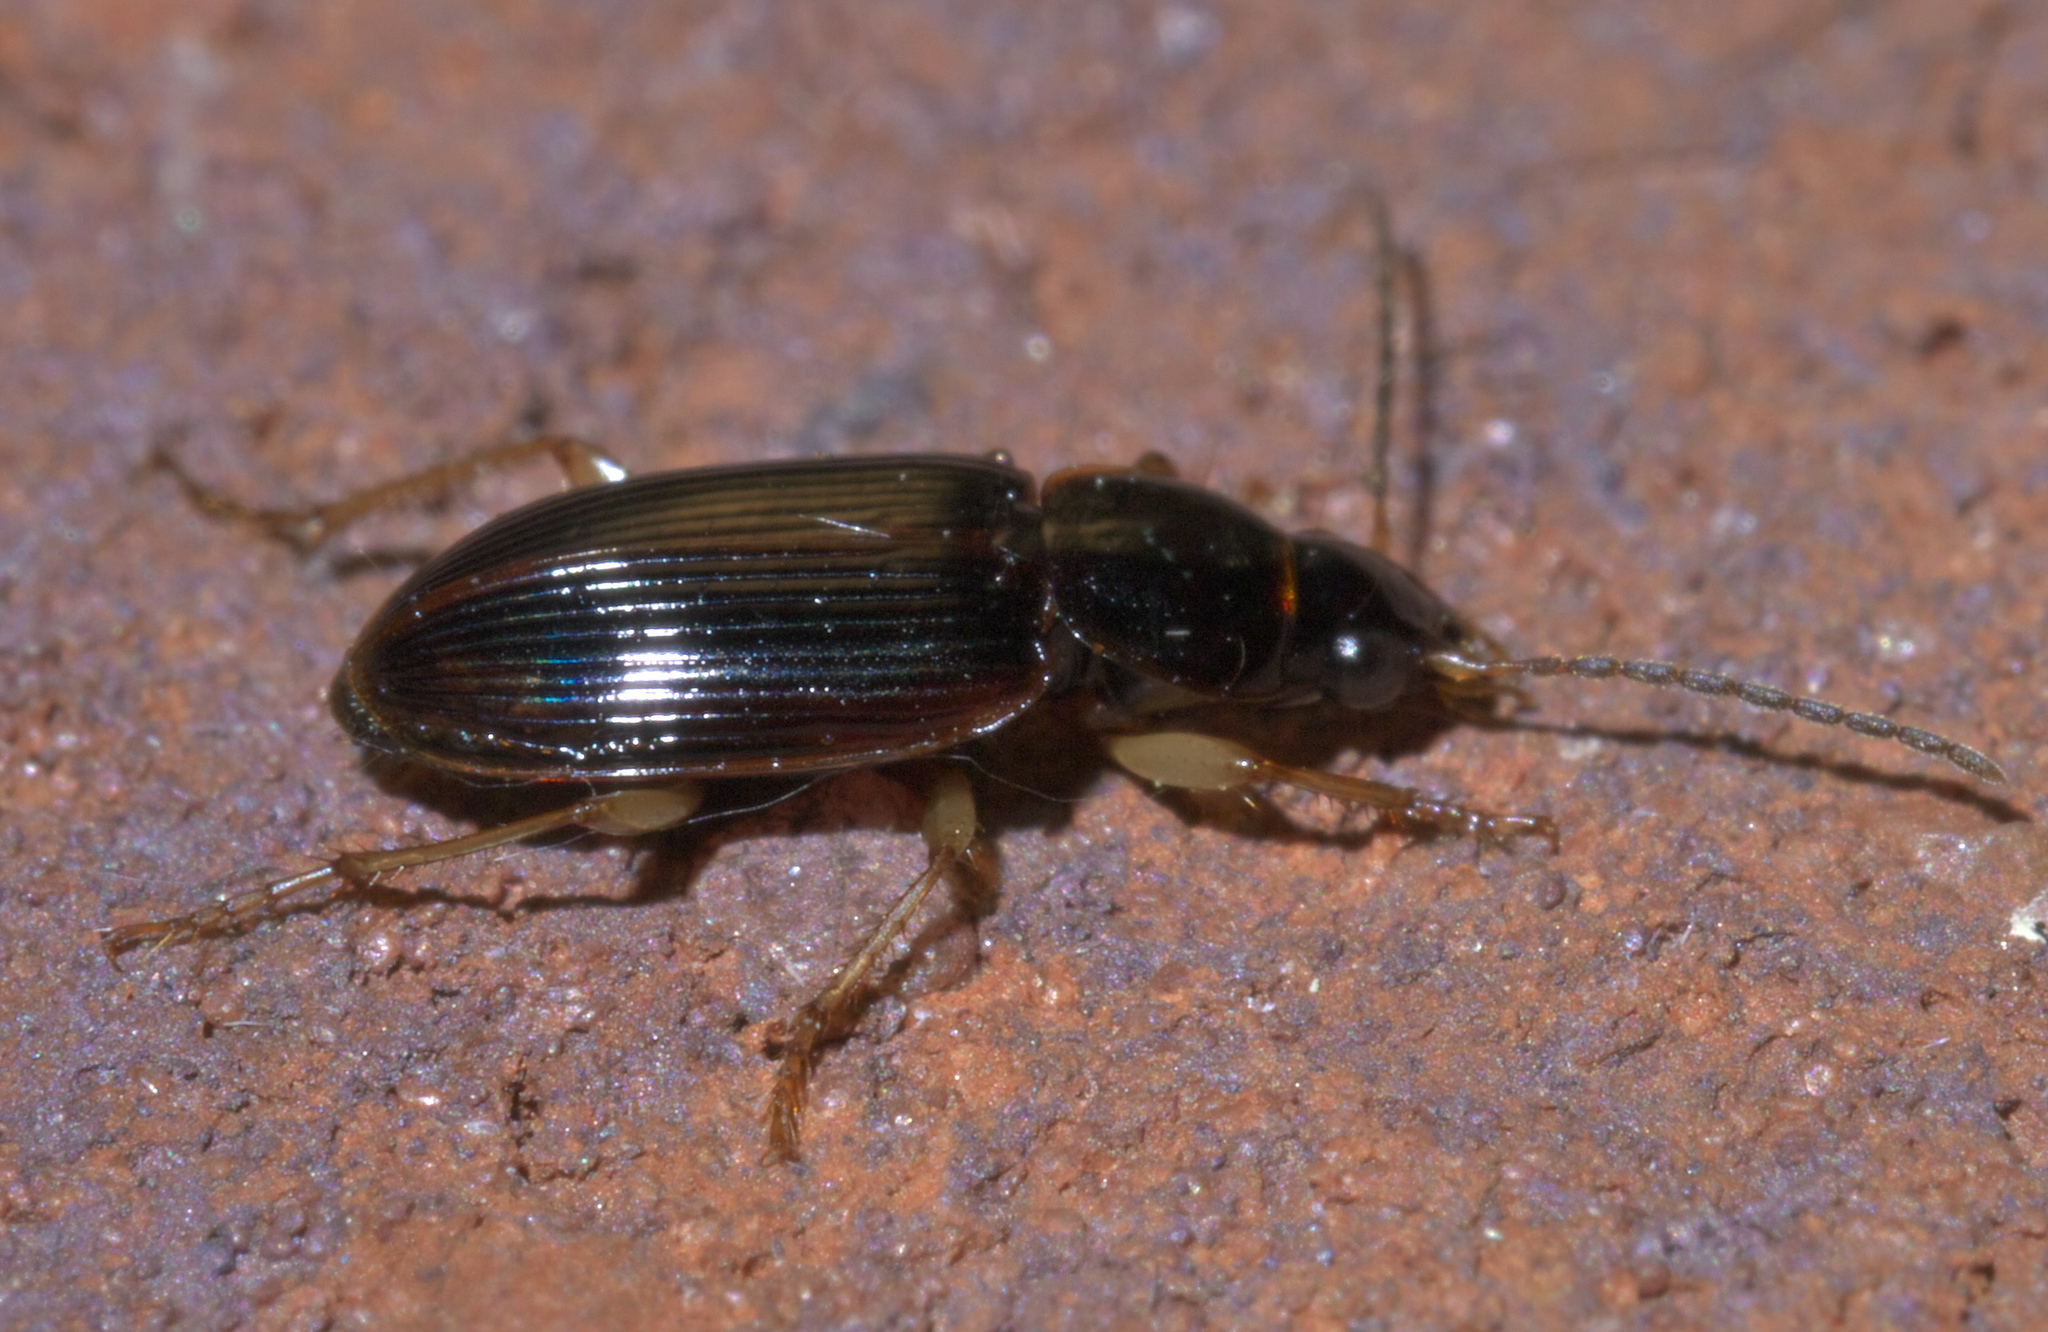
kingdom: Animalia
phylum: Arthropoda
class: Insecta
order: Coleoptera
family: Carabidae
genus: Stenolophus
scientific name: Stenolophus ochropezus
